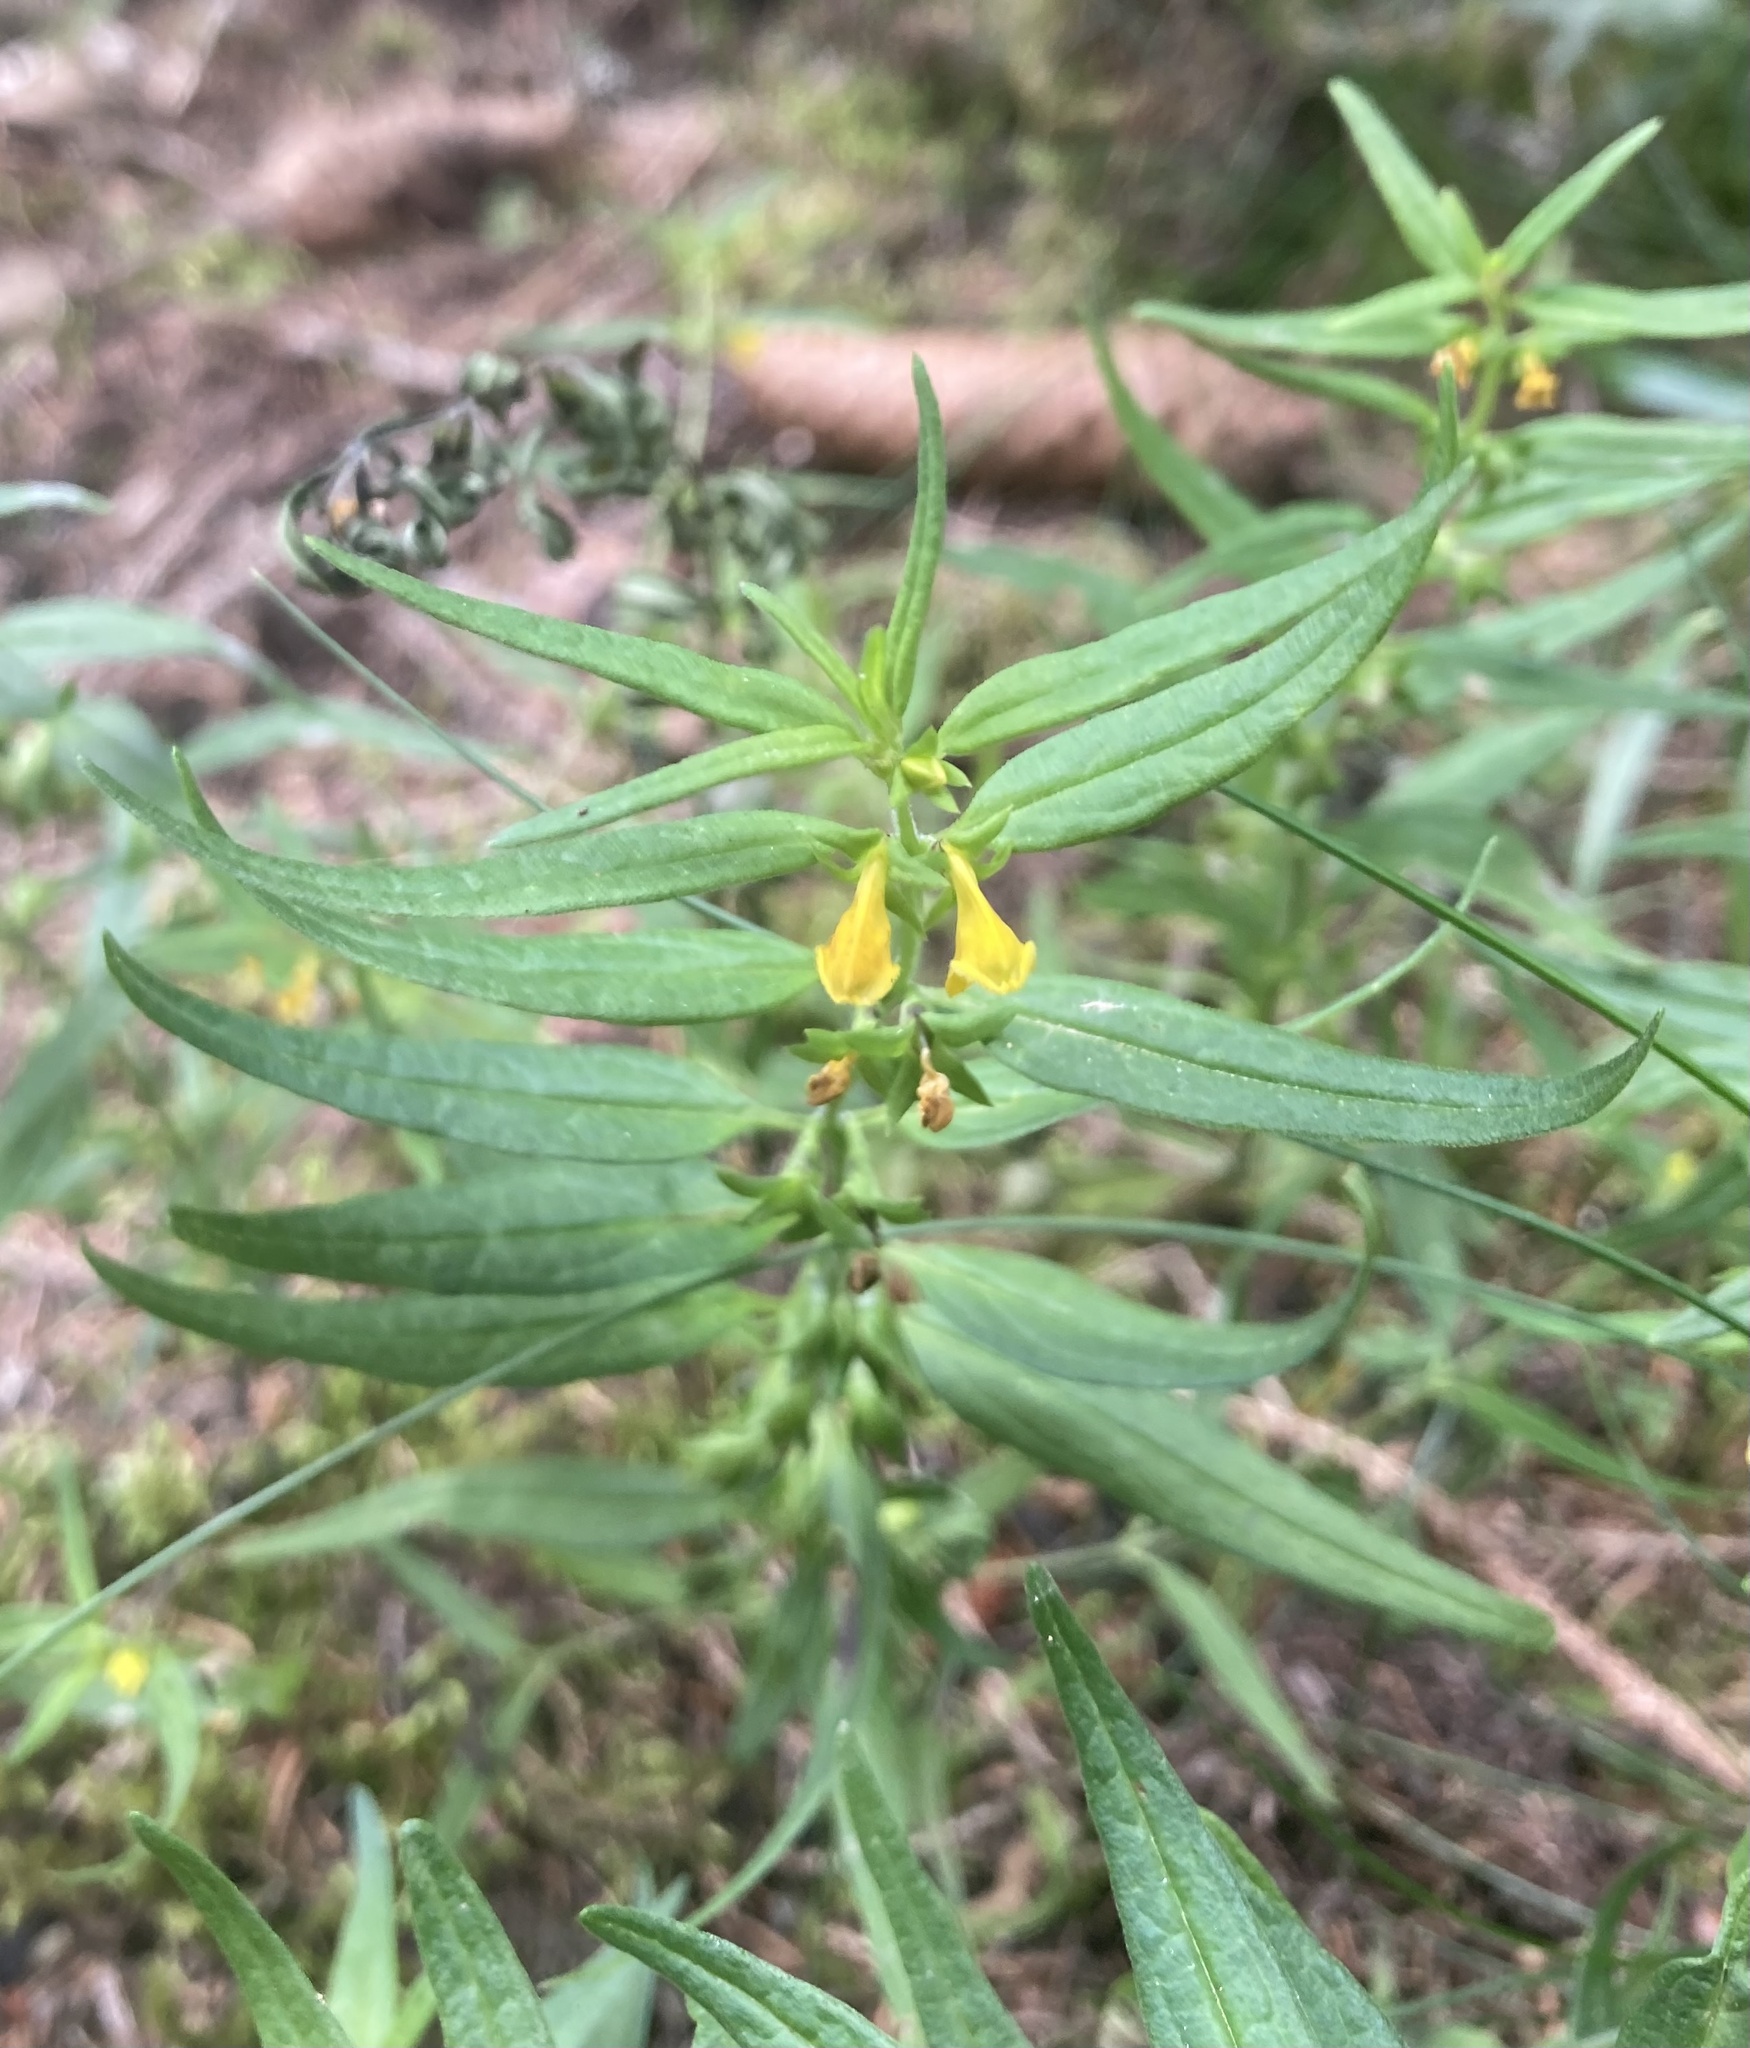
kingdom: Plantae
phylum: Tracheophyta
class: Magnoliopsida
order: Lamiales
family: Orobanchaceae
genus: Melampyrum
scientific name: Melampyrum sylvaticum
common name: Small cow-wheat
